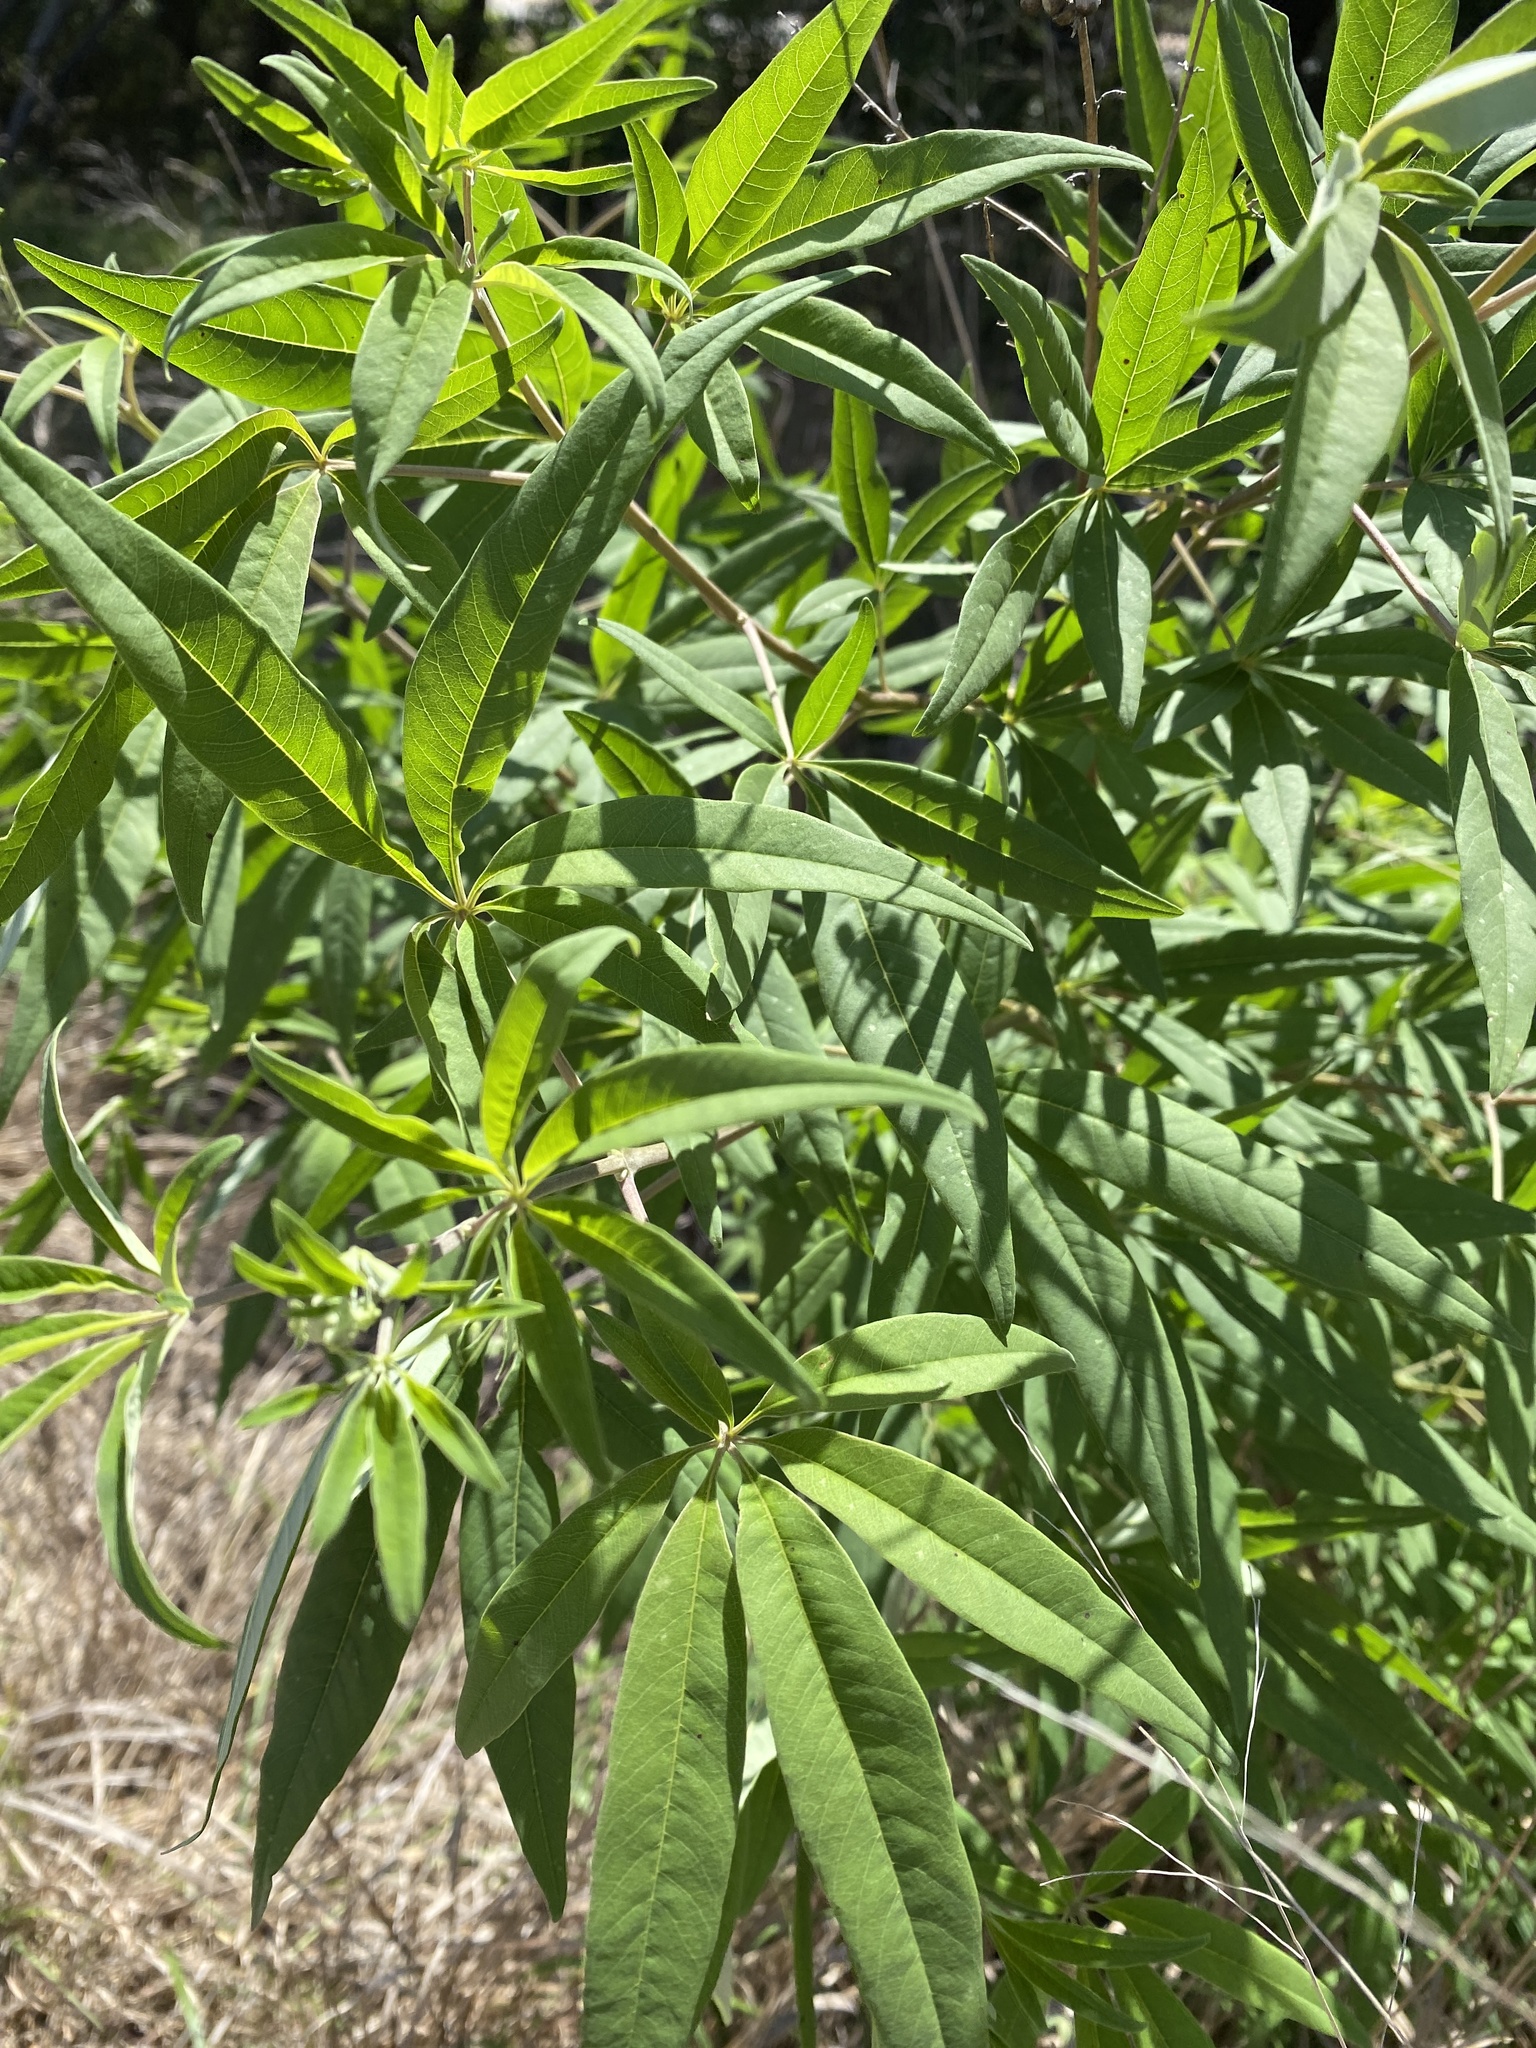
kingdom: Plantae
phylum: Tracheophyta
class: Magnoliopsida
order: Lamiales
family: Lamiaceae
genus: Vitex
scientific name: Vitex agnus-castus
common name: Chasteberry
